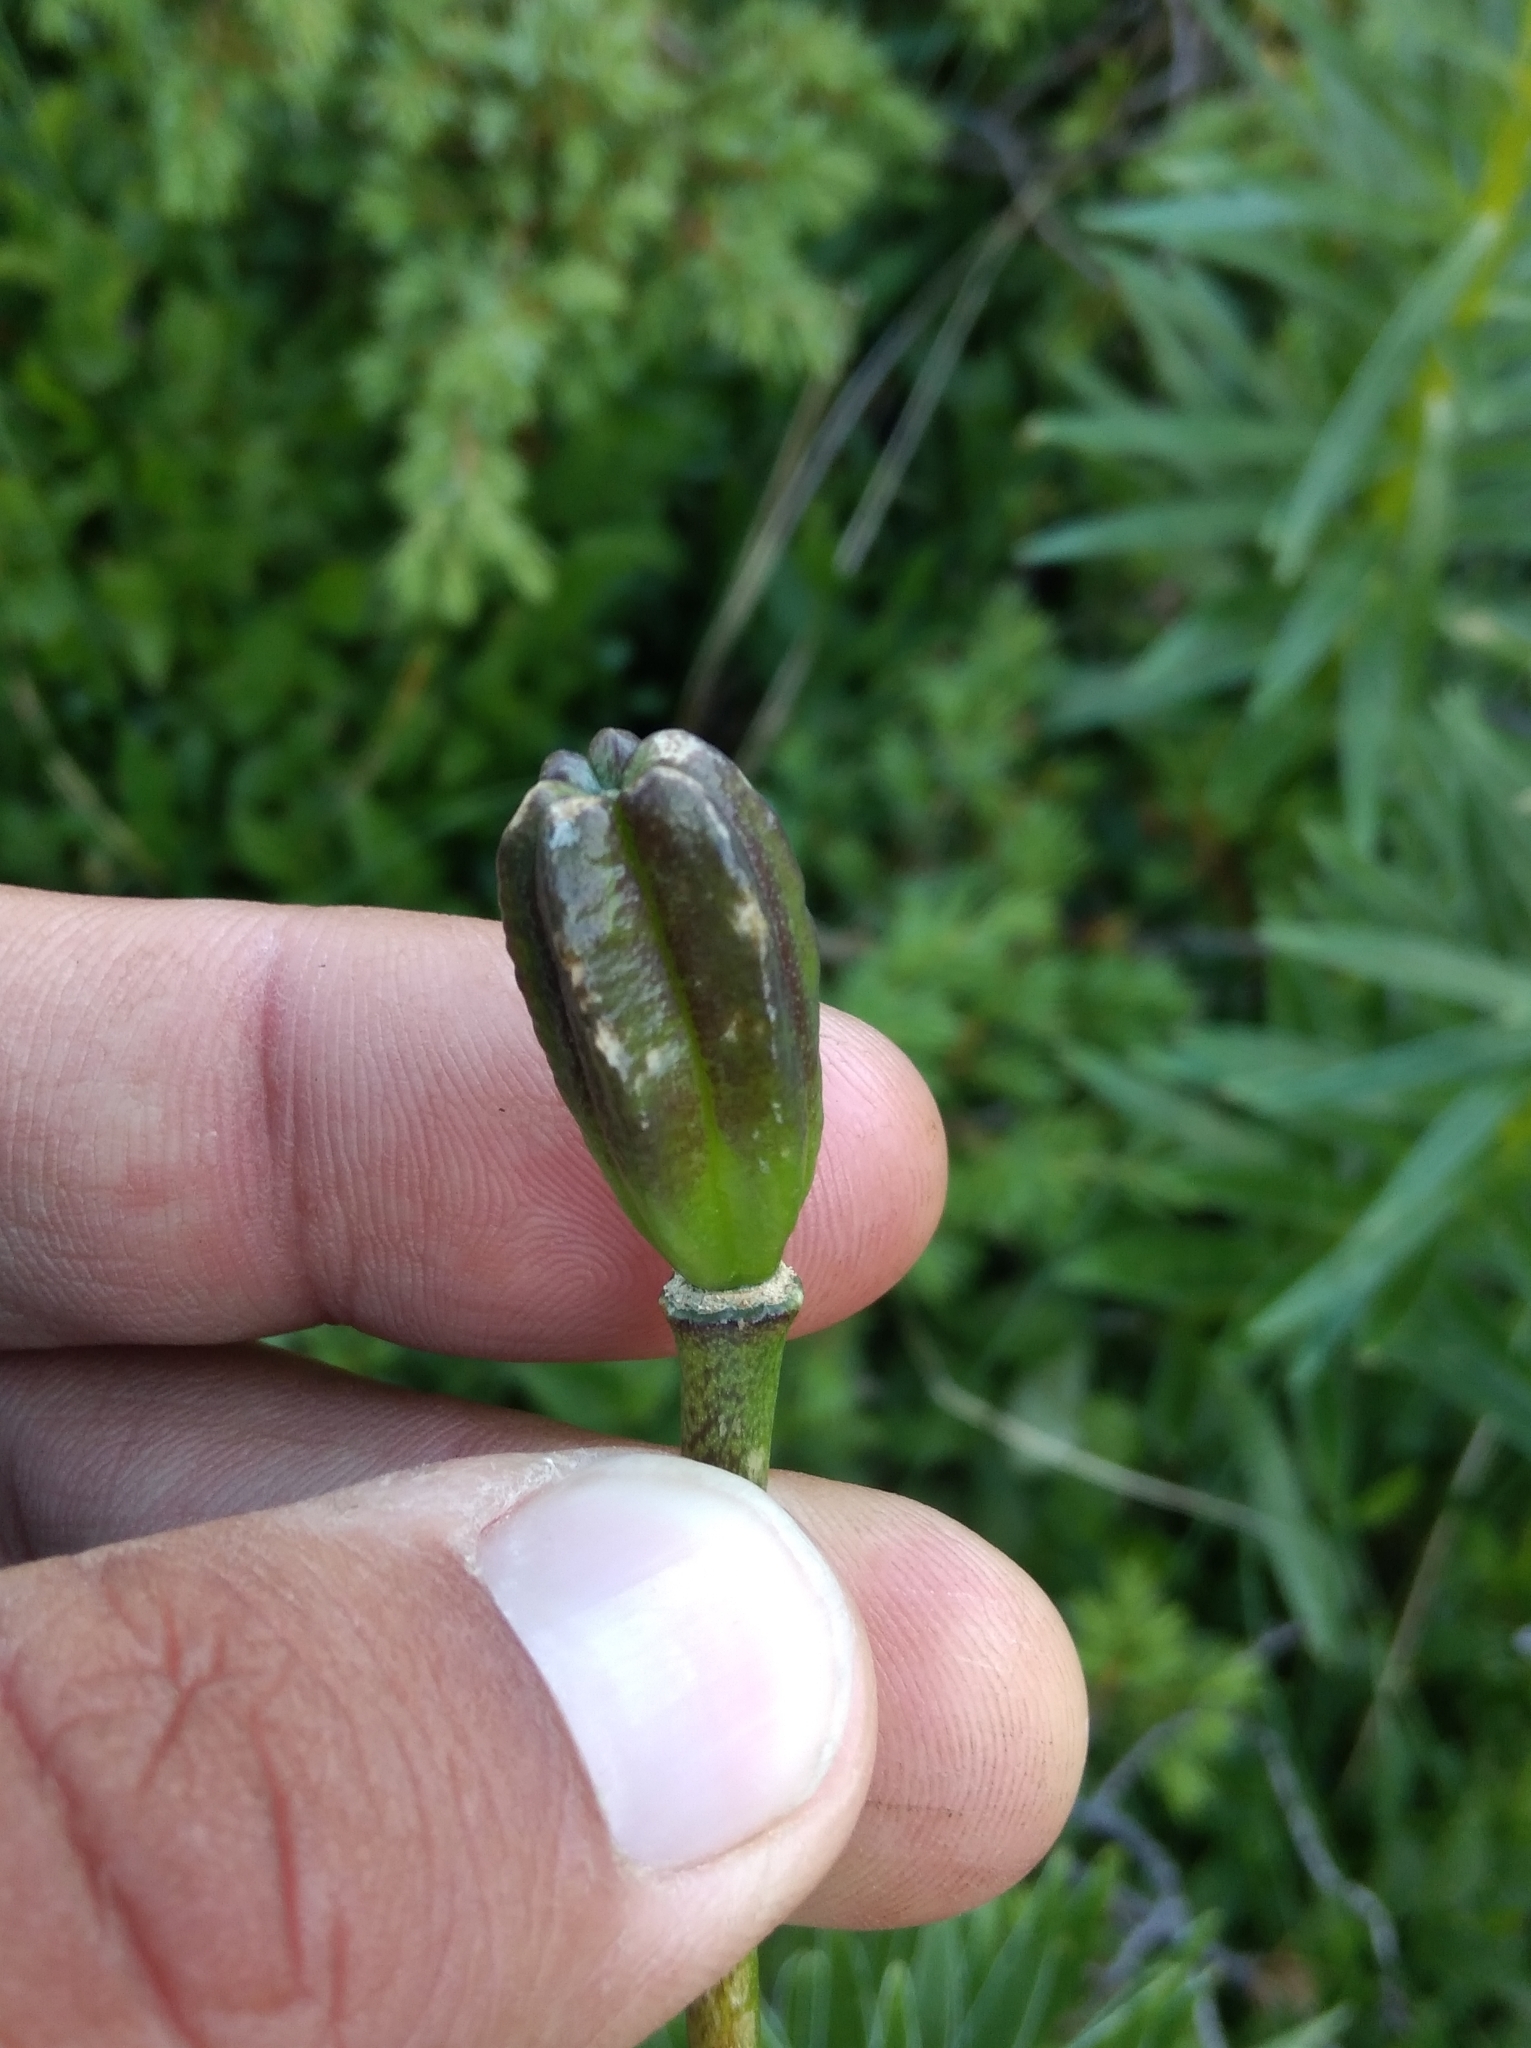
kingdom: Plantae
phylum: Tracheophyta
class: Liliopsida
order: Liliales
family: Liliaceae
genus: Lilium
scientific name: Lilium pyrenaicum
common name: Pyrenean lily
